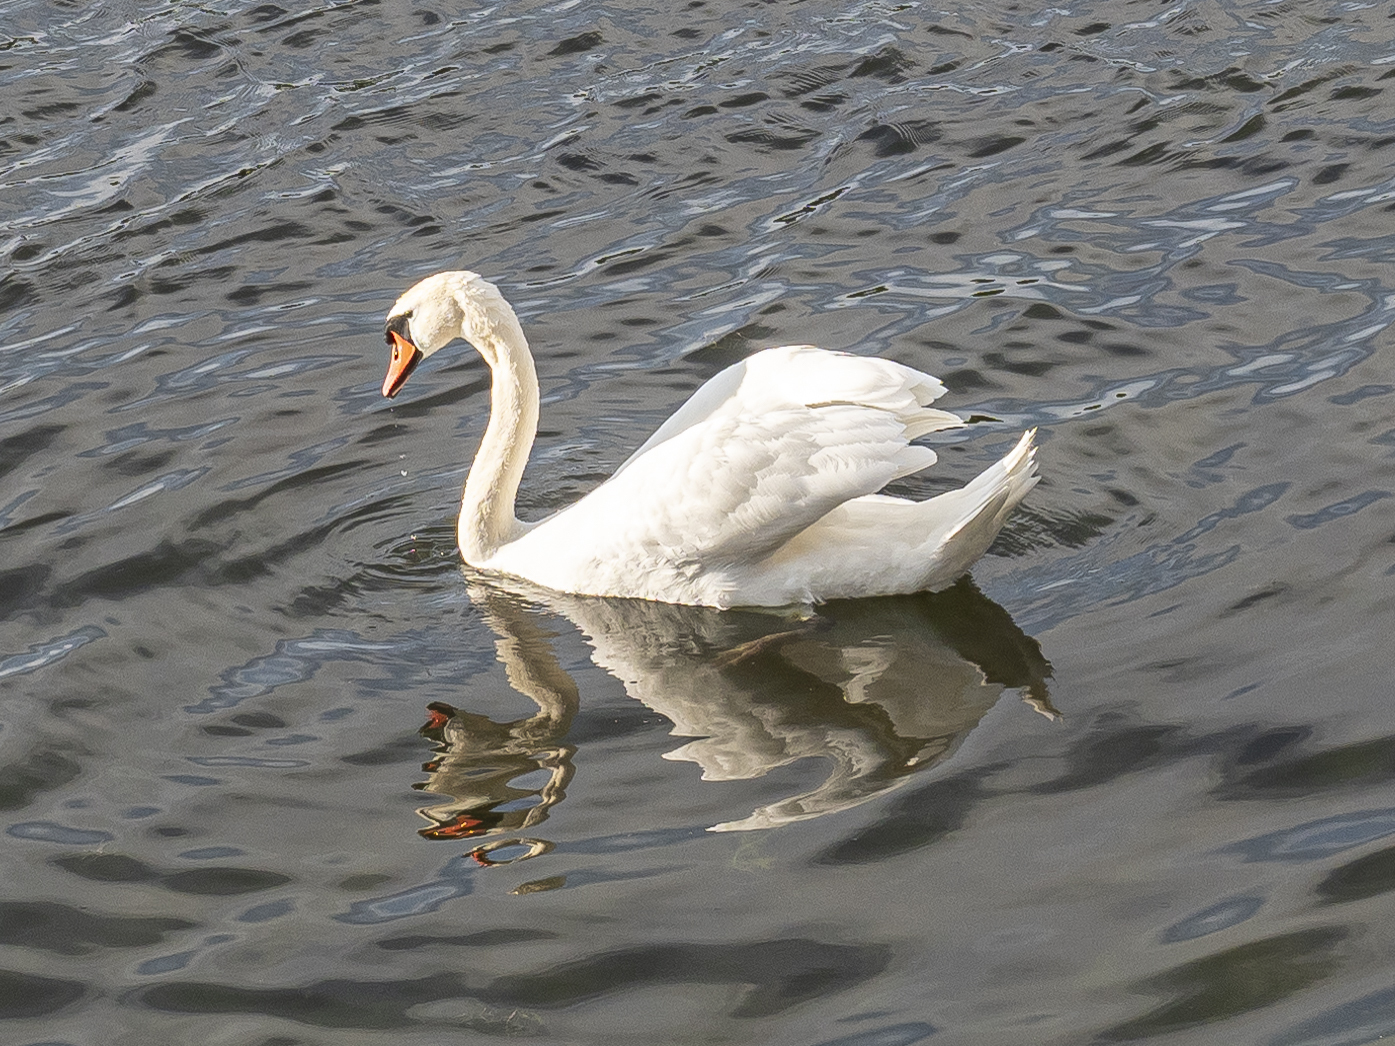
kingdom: Animalia
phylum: Chordata
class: Aves
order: Anseriformes
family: Anatidae
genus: Cygnus
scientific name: Cygnus olor
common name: Mute swan
